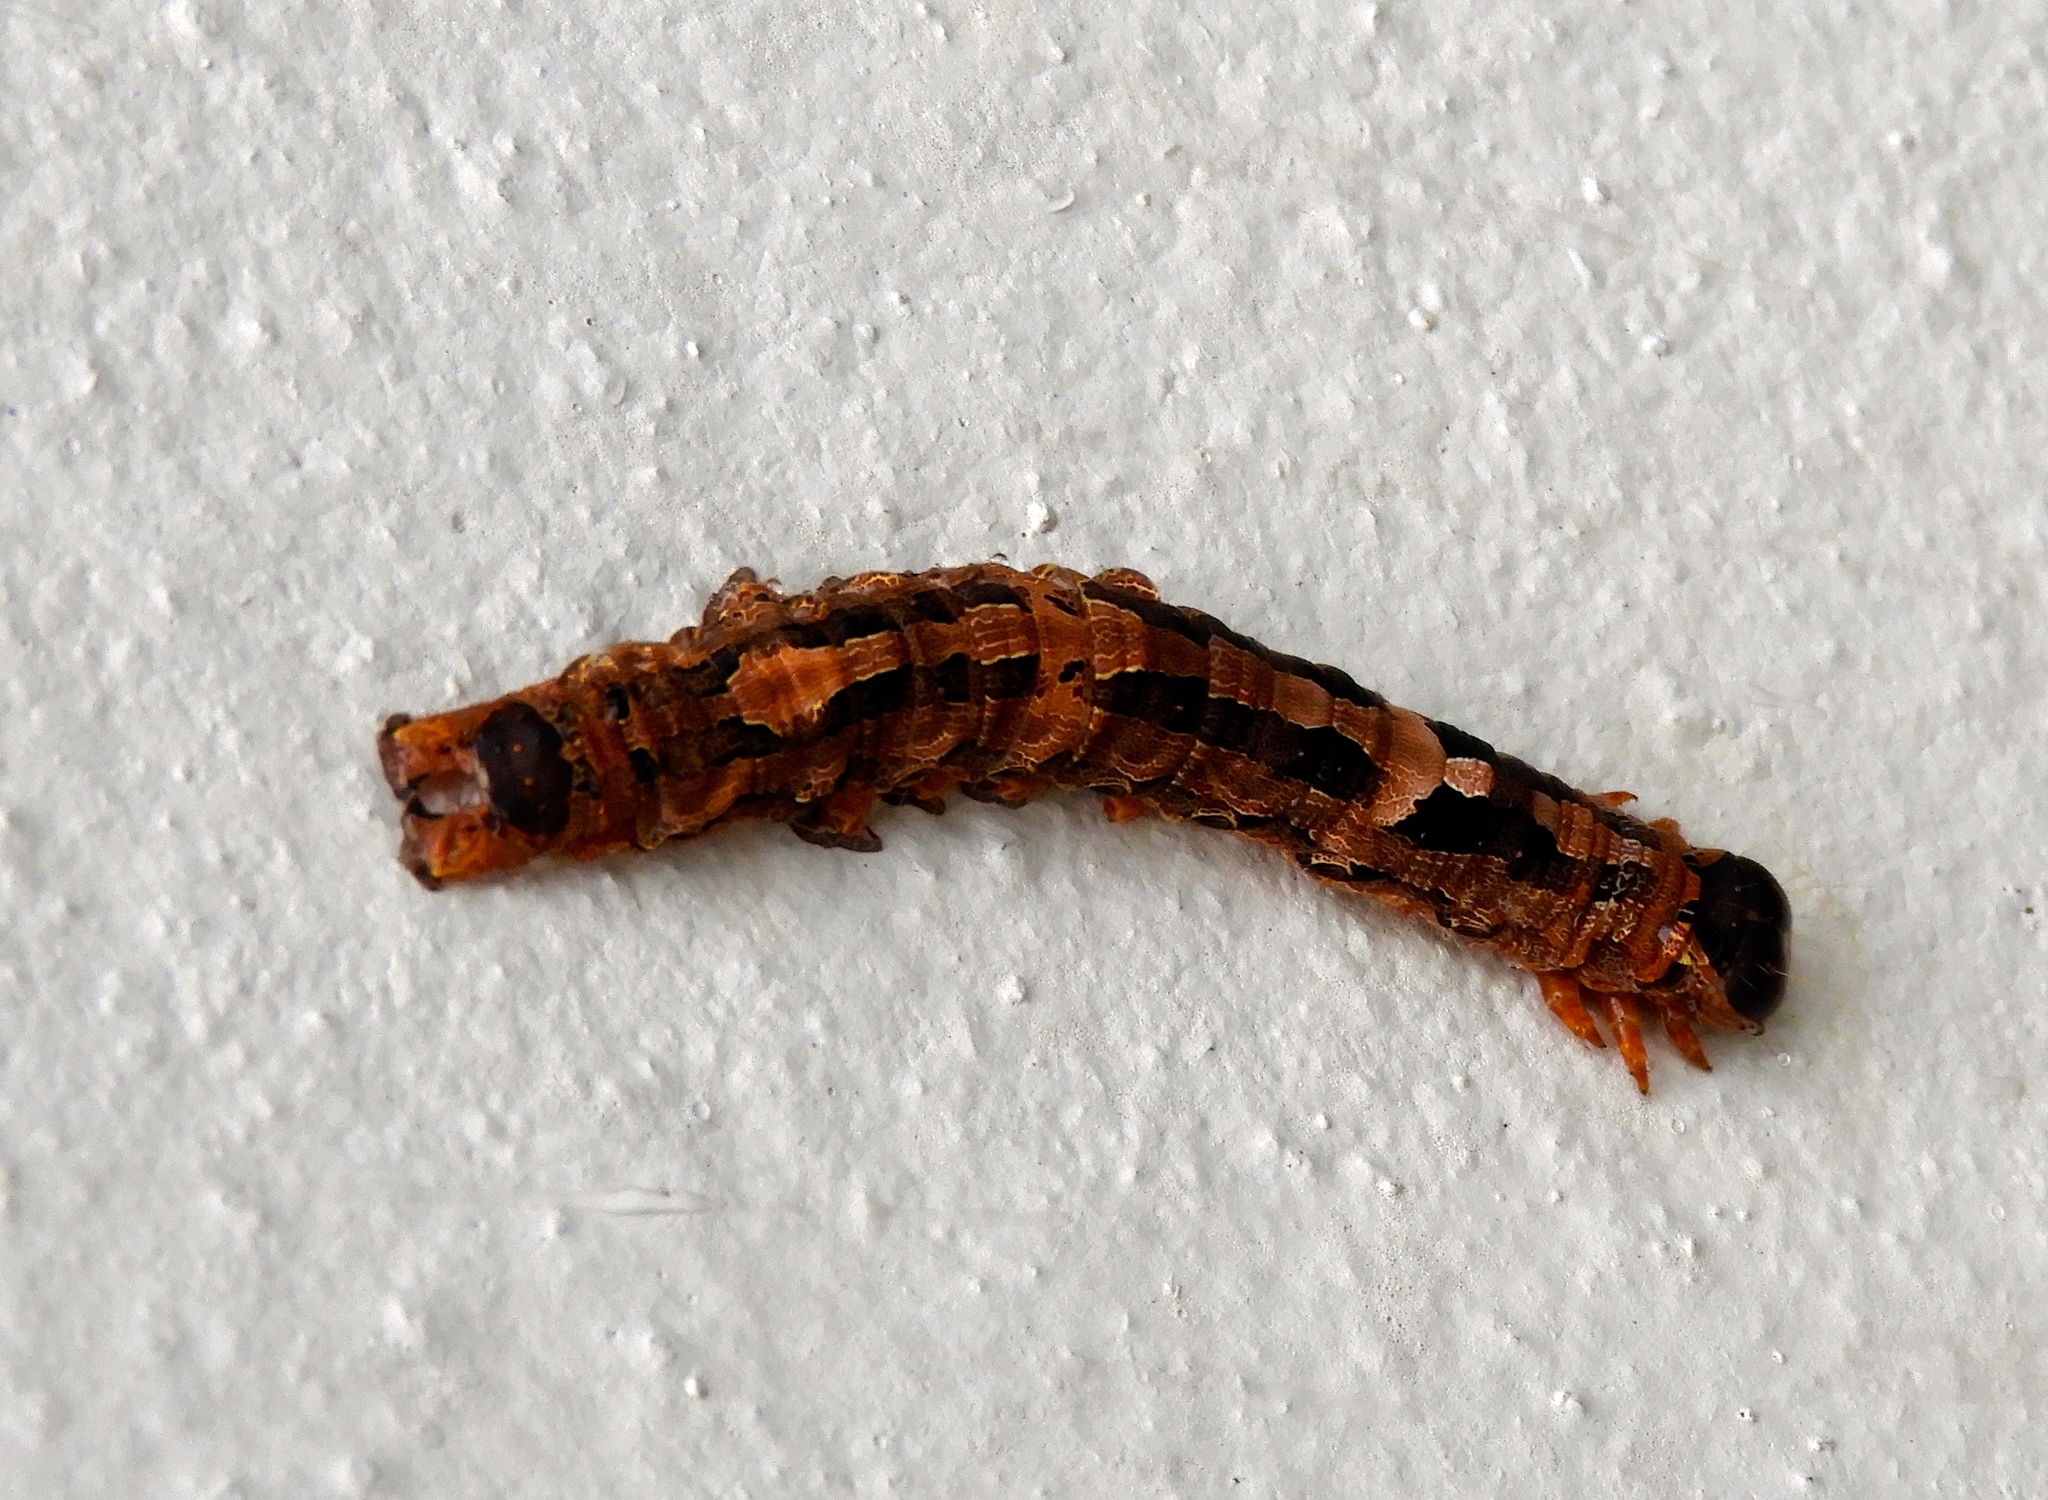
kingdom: Animalia
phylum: Arthropoda
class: Insecta
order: Lepidoptera
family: Erebidae
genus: Ascalapha
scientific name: Ascalapha odorata
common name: Black witch
